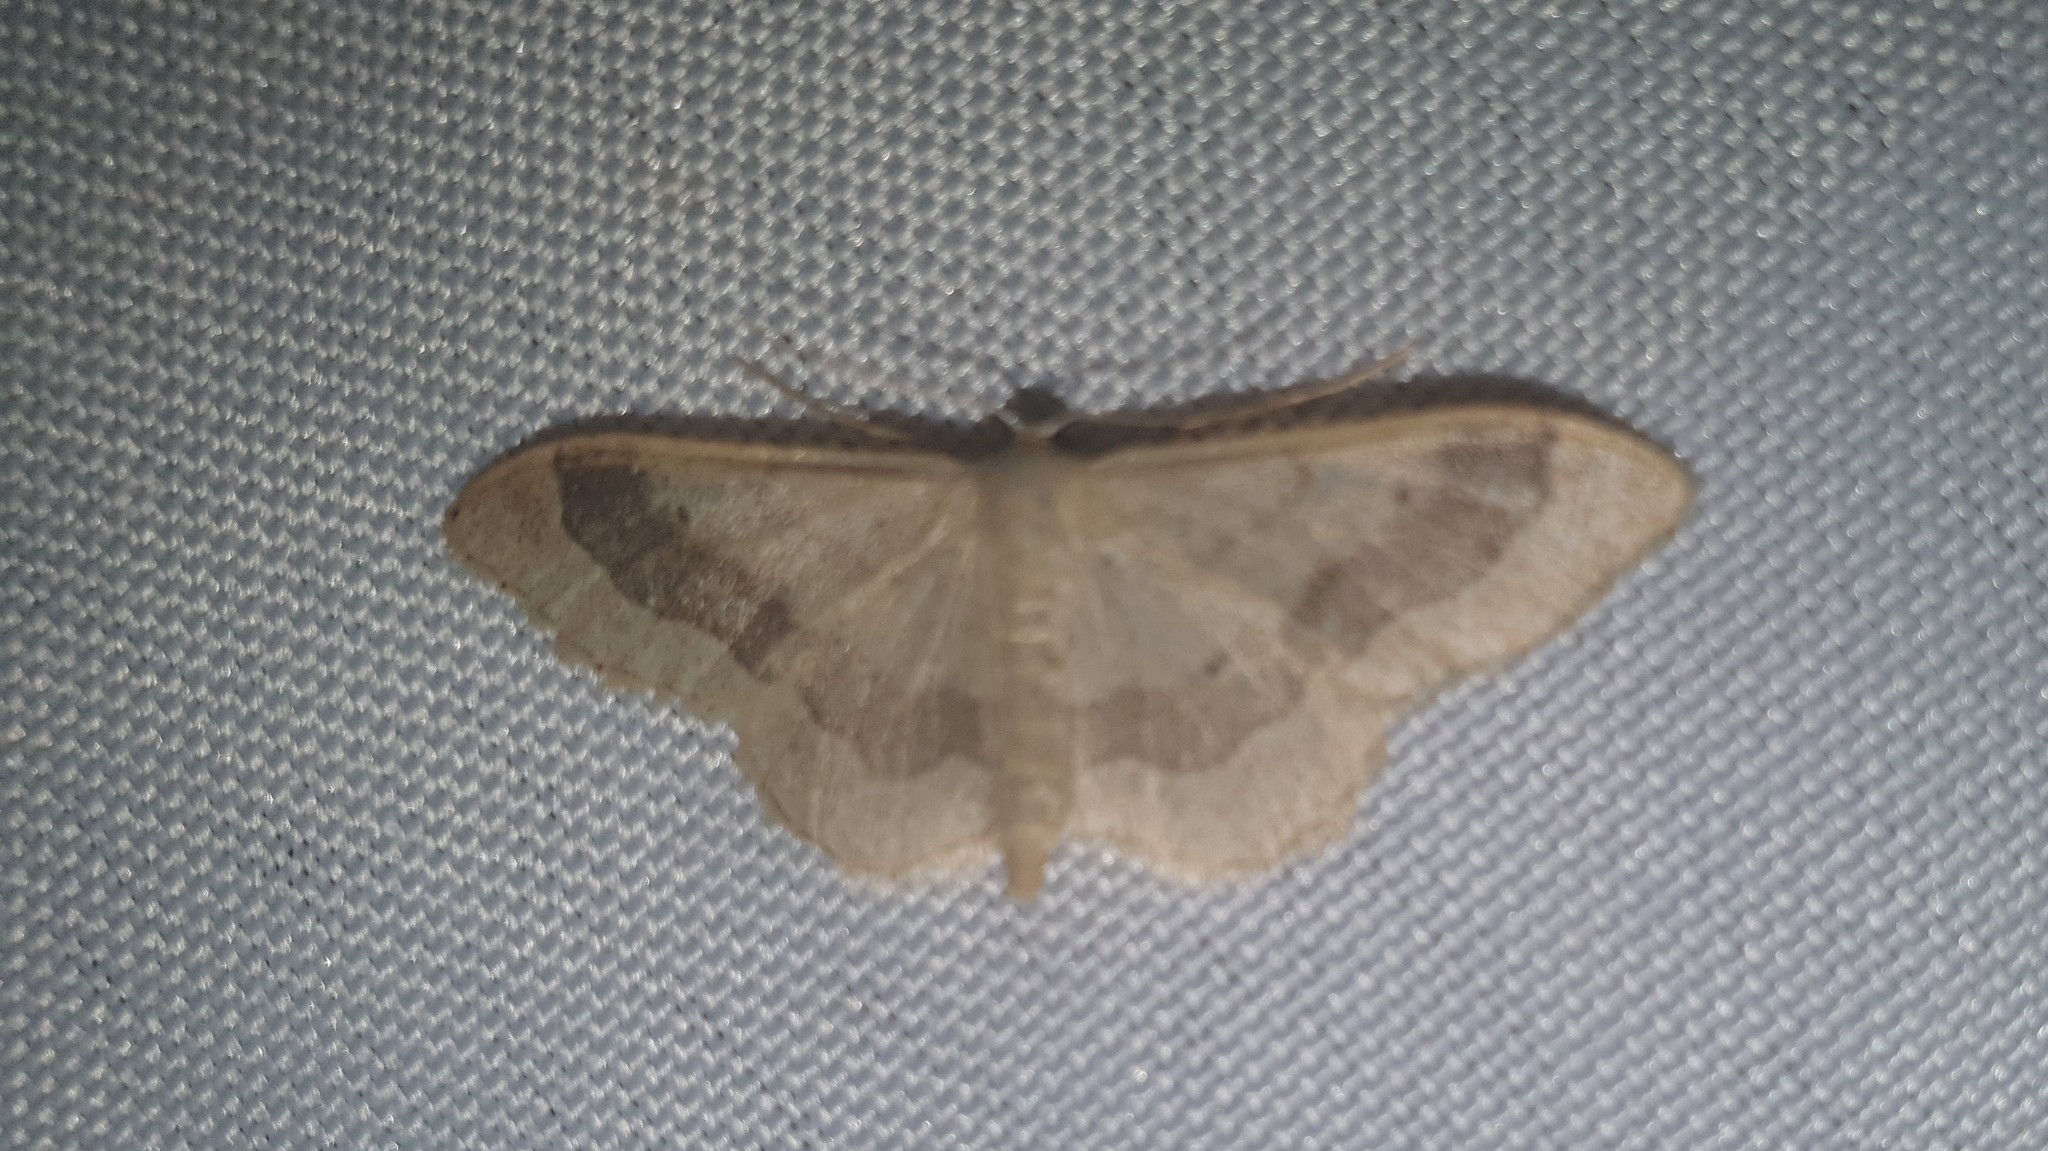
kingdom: Animalia
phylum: Arthropoda
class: Insecta
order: Lepidoptera
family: Geometridae
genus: Idaea
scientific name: Idaea aversata
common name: Riband wave
